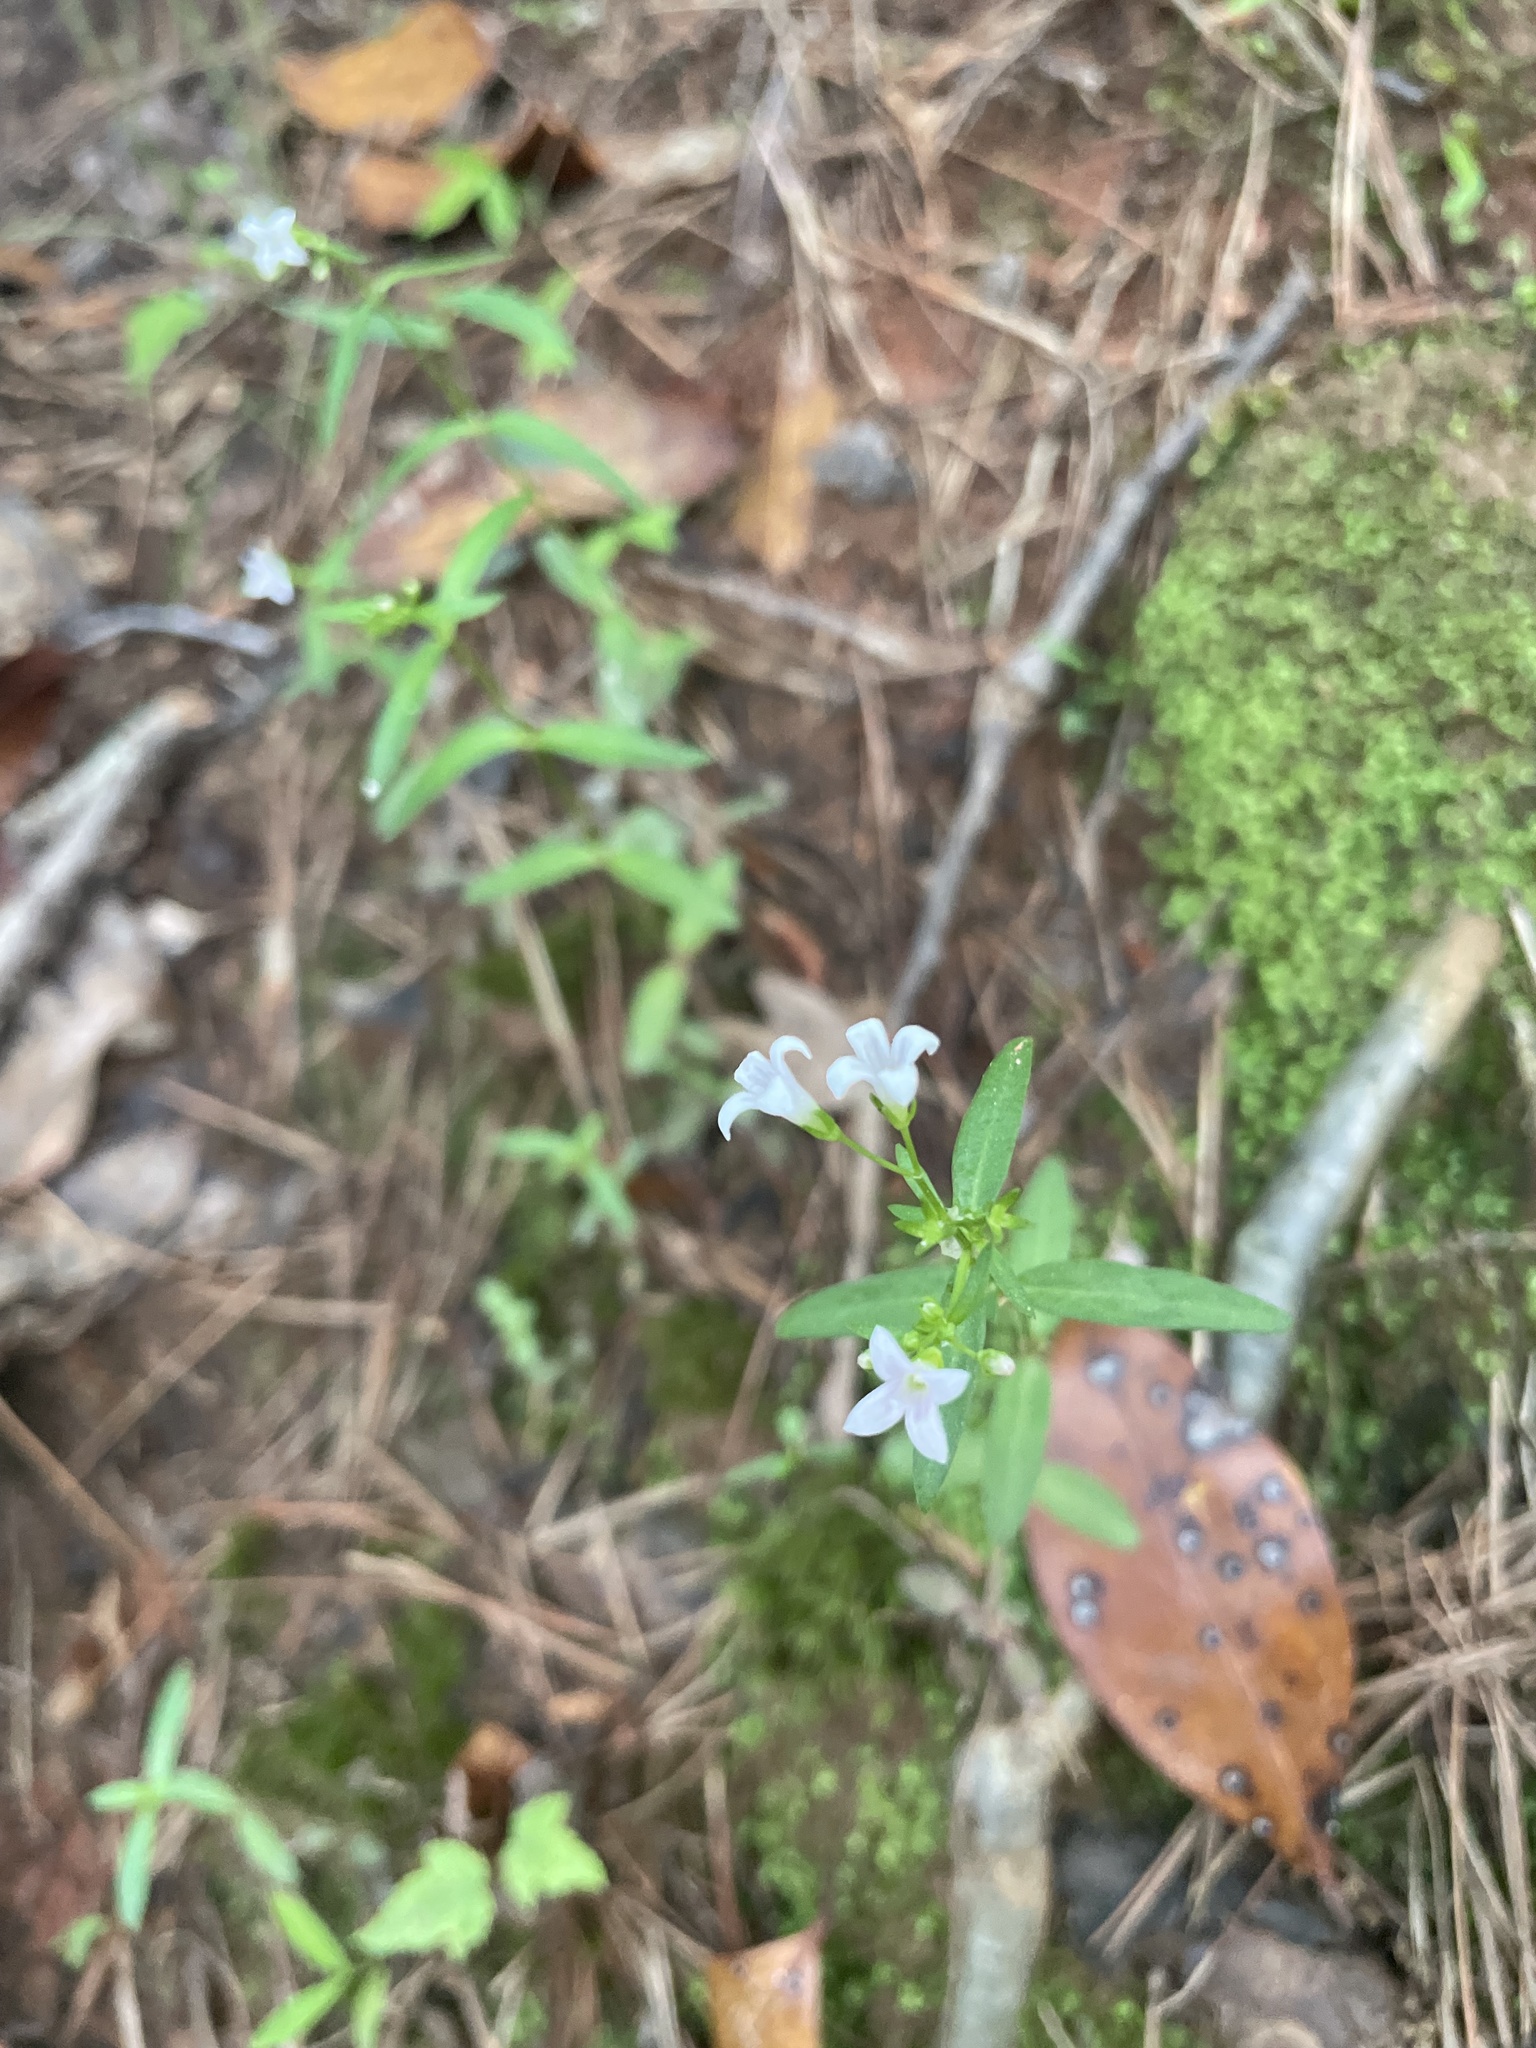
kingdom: Plantae
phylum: Tracheophyta
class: Magnoliopsida
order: Gentianales
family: Rubiaceae
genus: Houstonia
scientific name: Houstonia longifolia
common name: Long-leaved bluets
